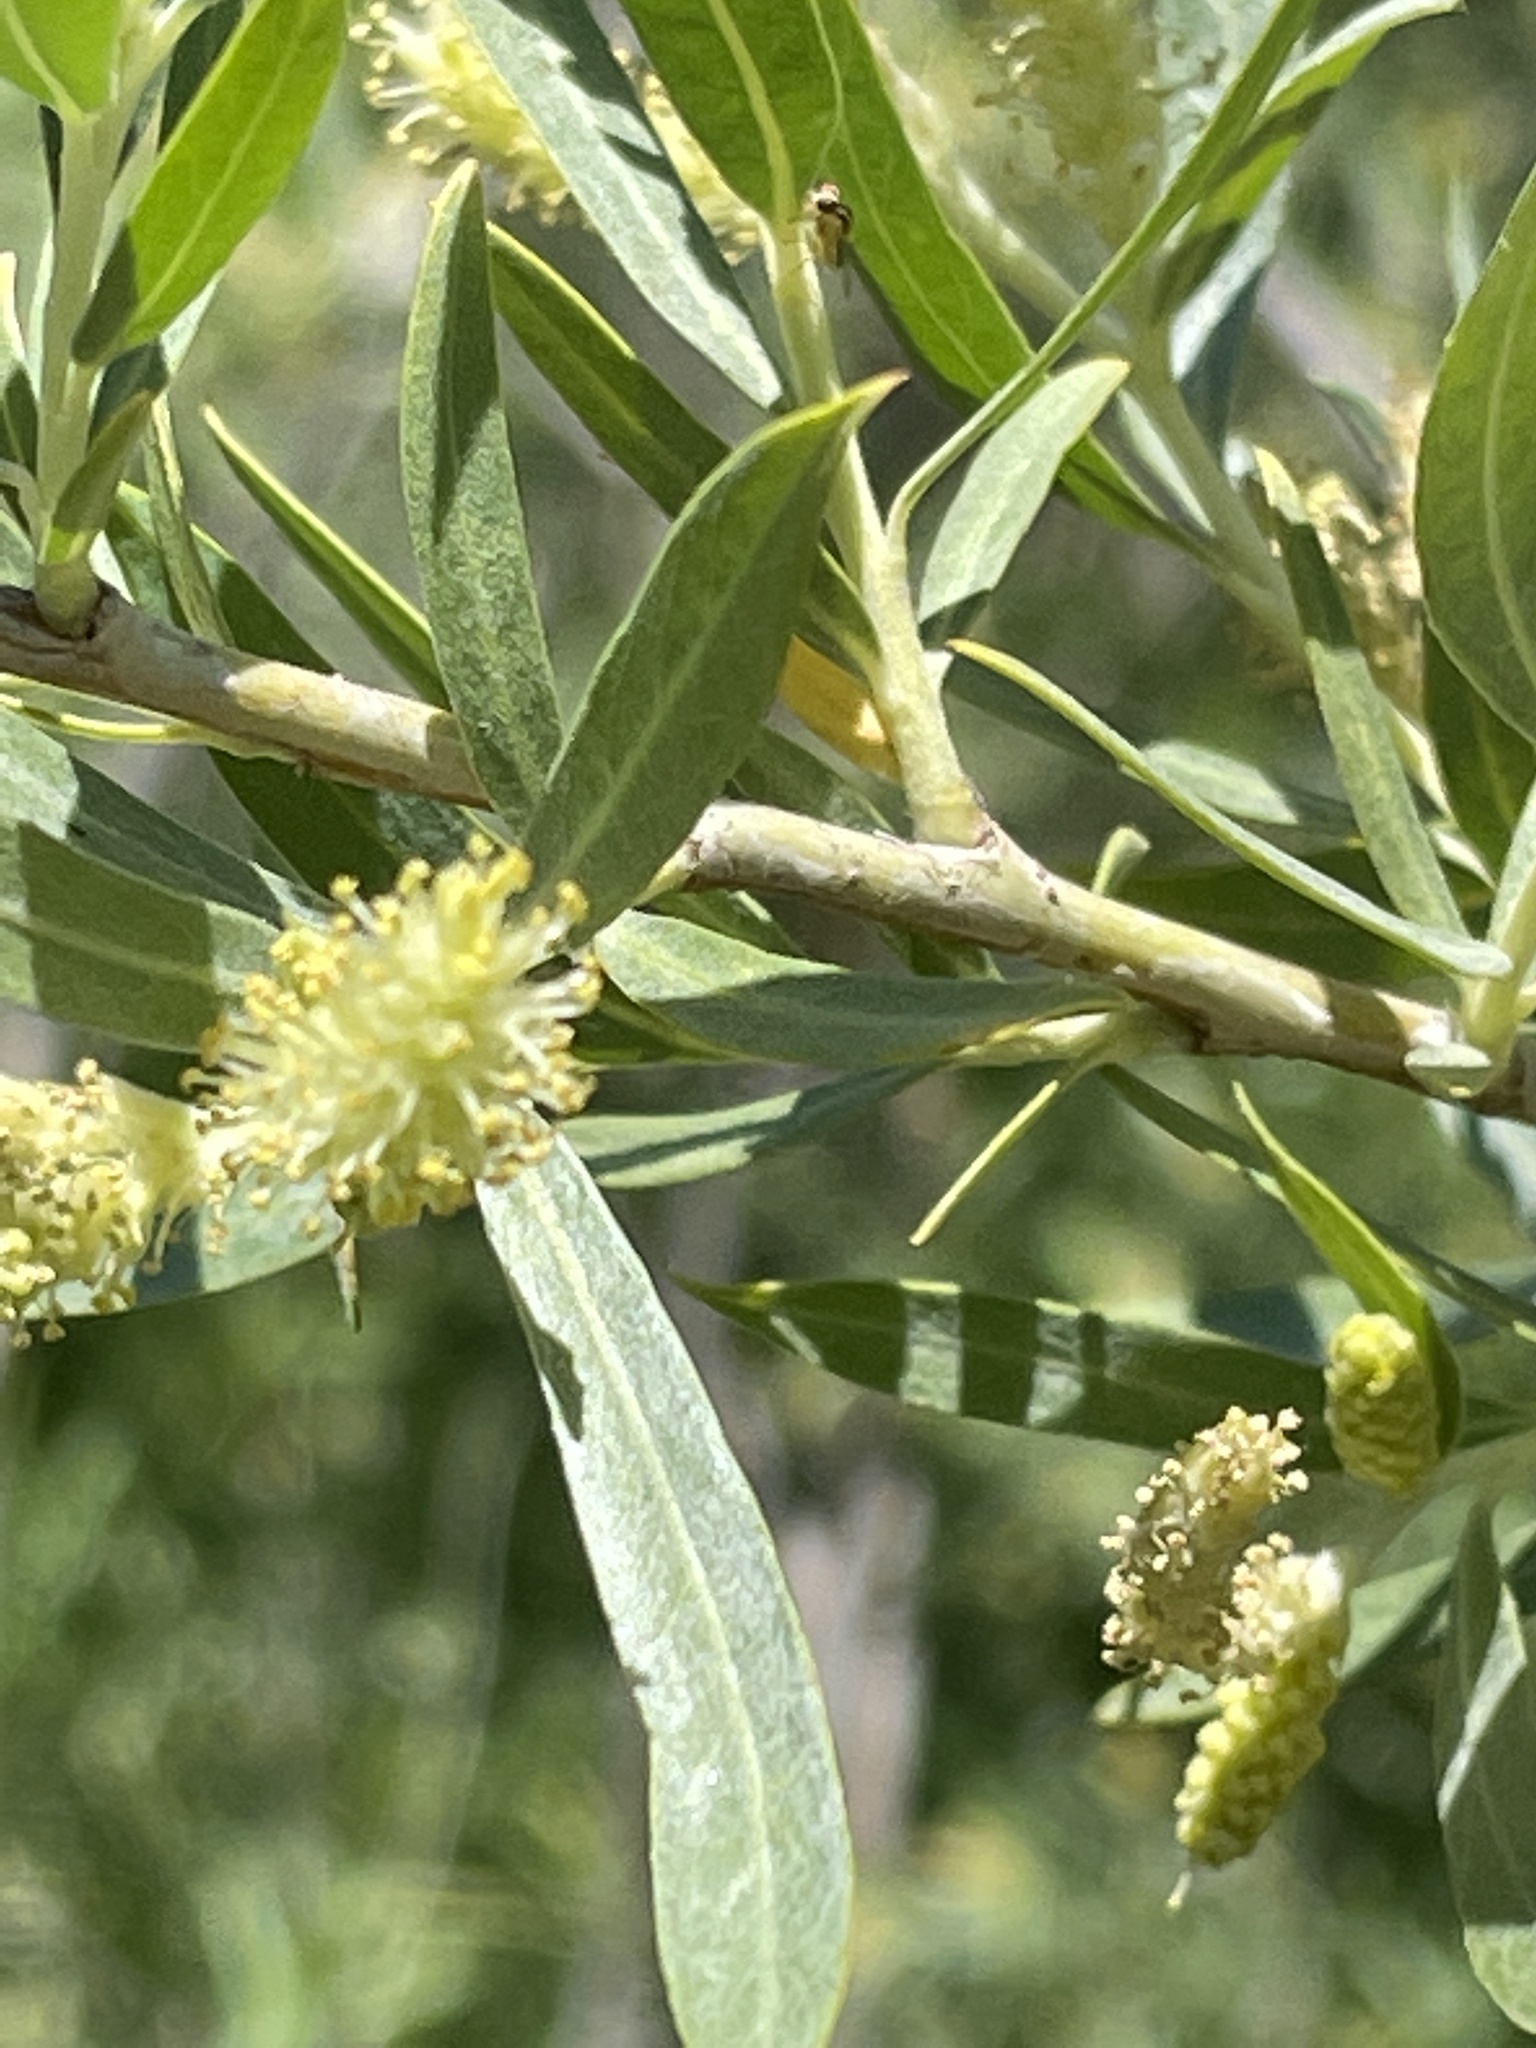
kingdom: Plantae
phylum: Tracheophyta
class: Magnoliopsida
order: Malpighiales
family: Salicaceae
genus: Salix
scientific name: Salix exigua
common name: Coyote willow
